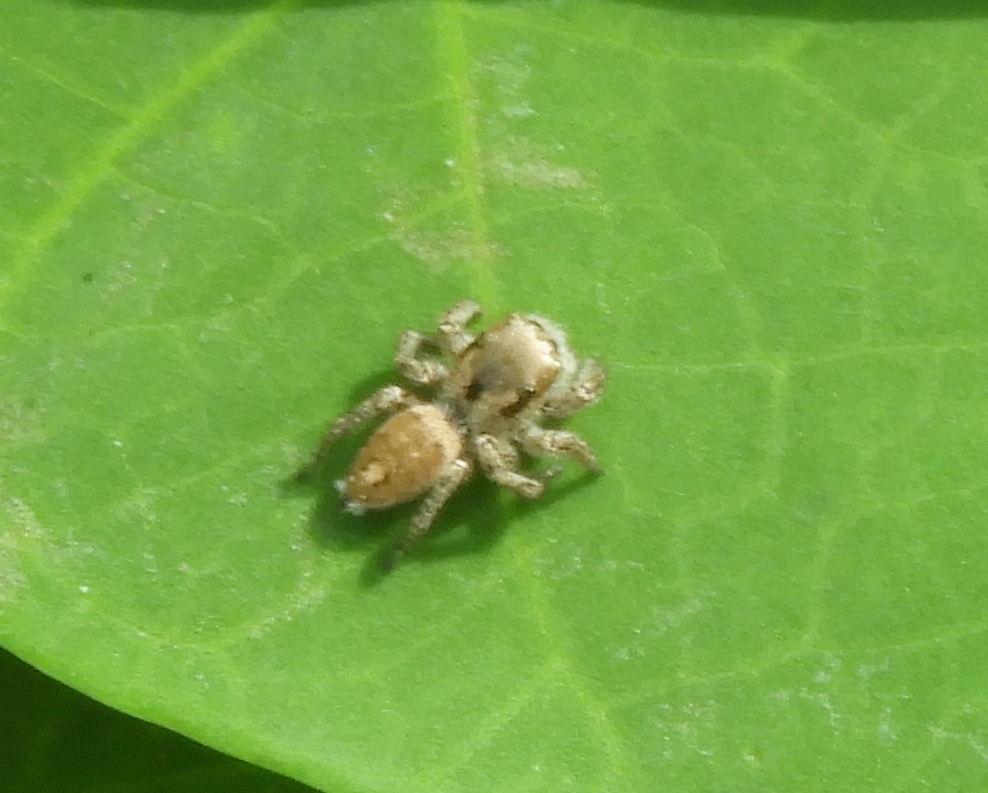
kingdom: Animalia
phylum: Arthropoda
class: Arachnida
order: Araneae
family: Salticidae
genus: Habronattus
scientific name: Habronattus
